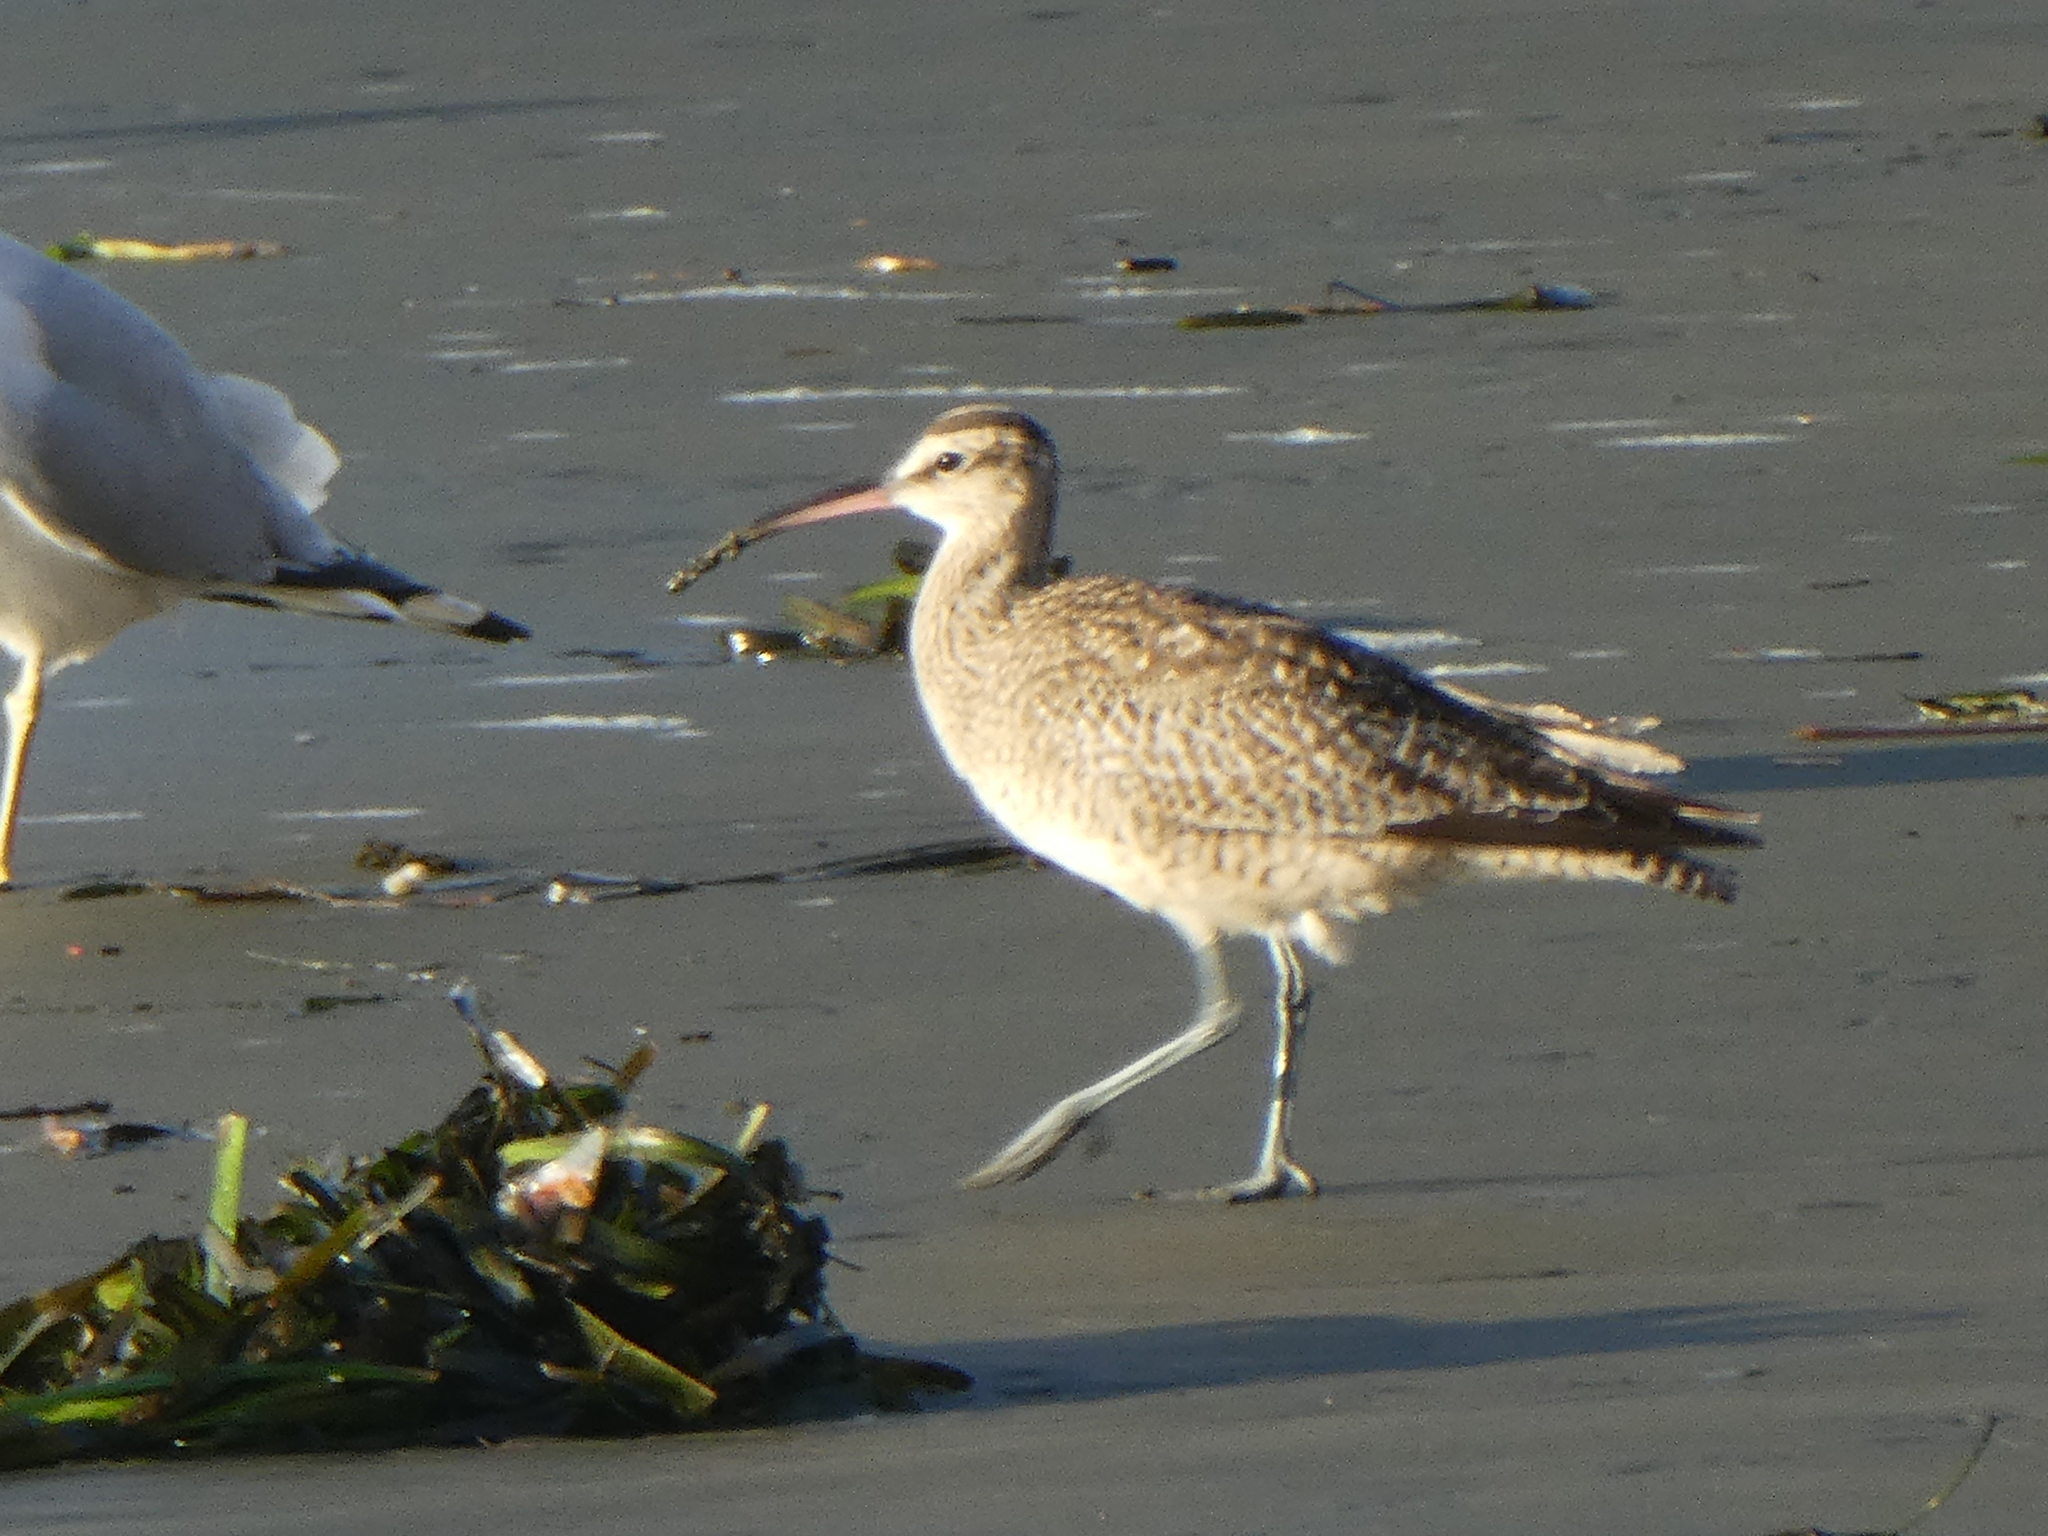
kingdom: Animalia
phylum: Chordata
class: Aves
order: Charadriiformes
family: Scolopacidae
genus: Numenius
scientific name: Numenius phaeopus
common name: Whimbrel
